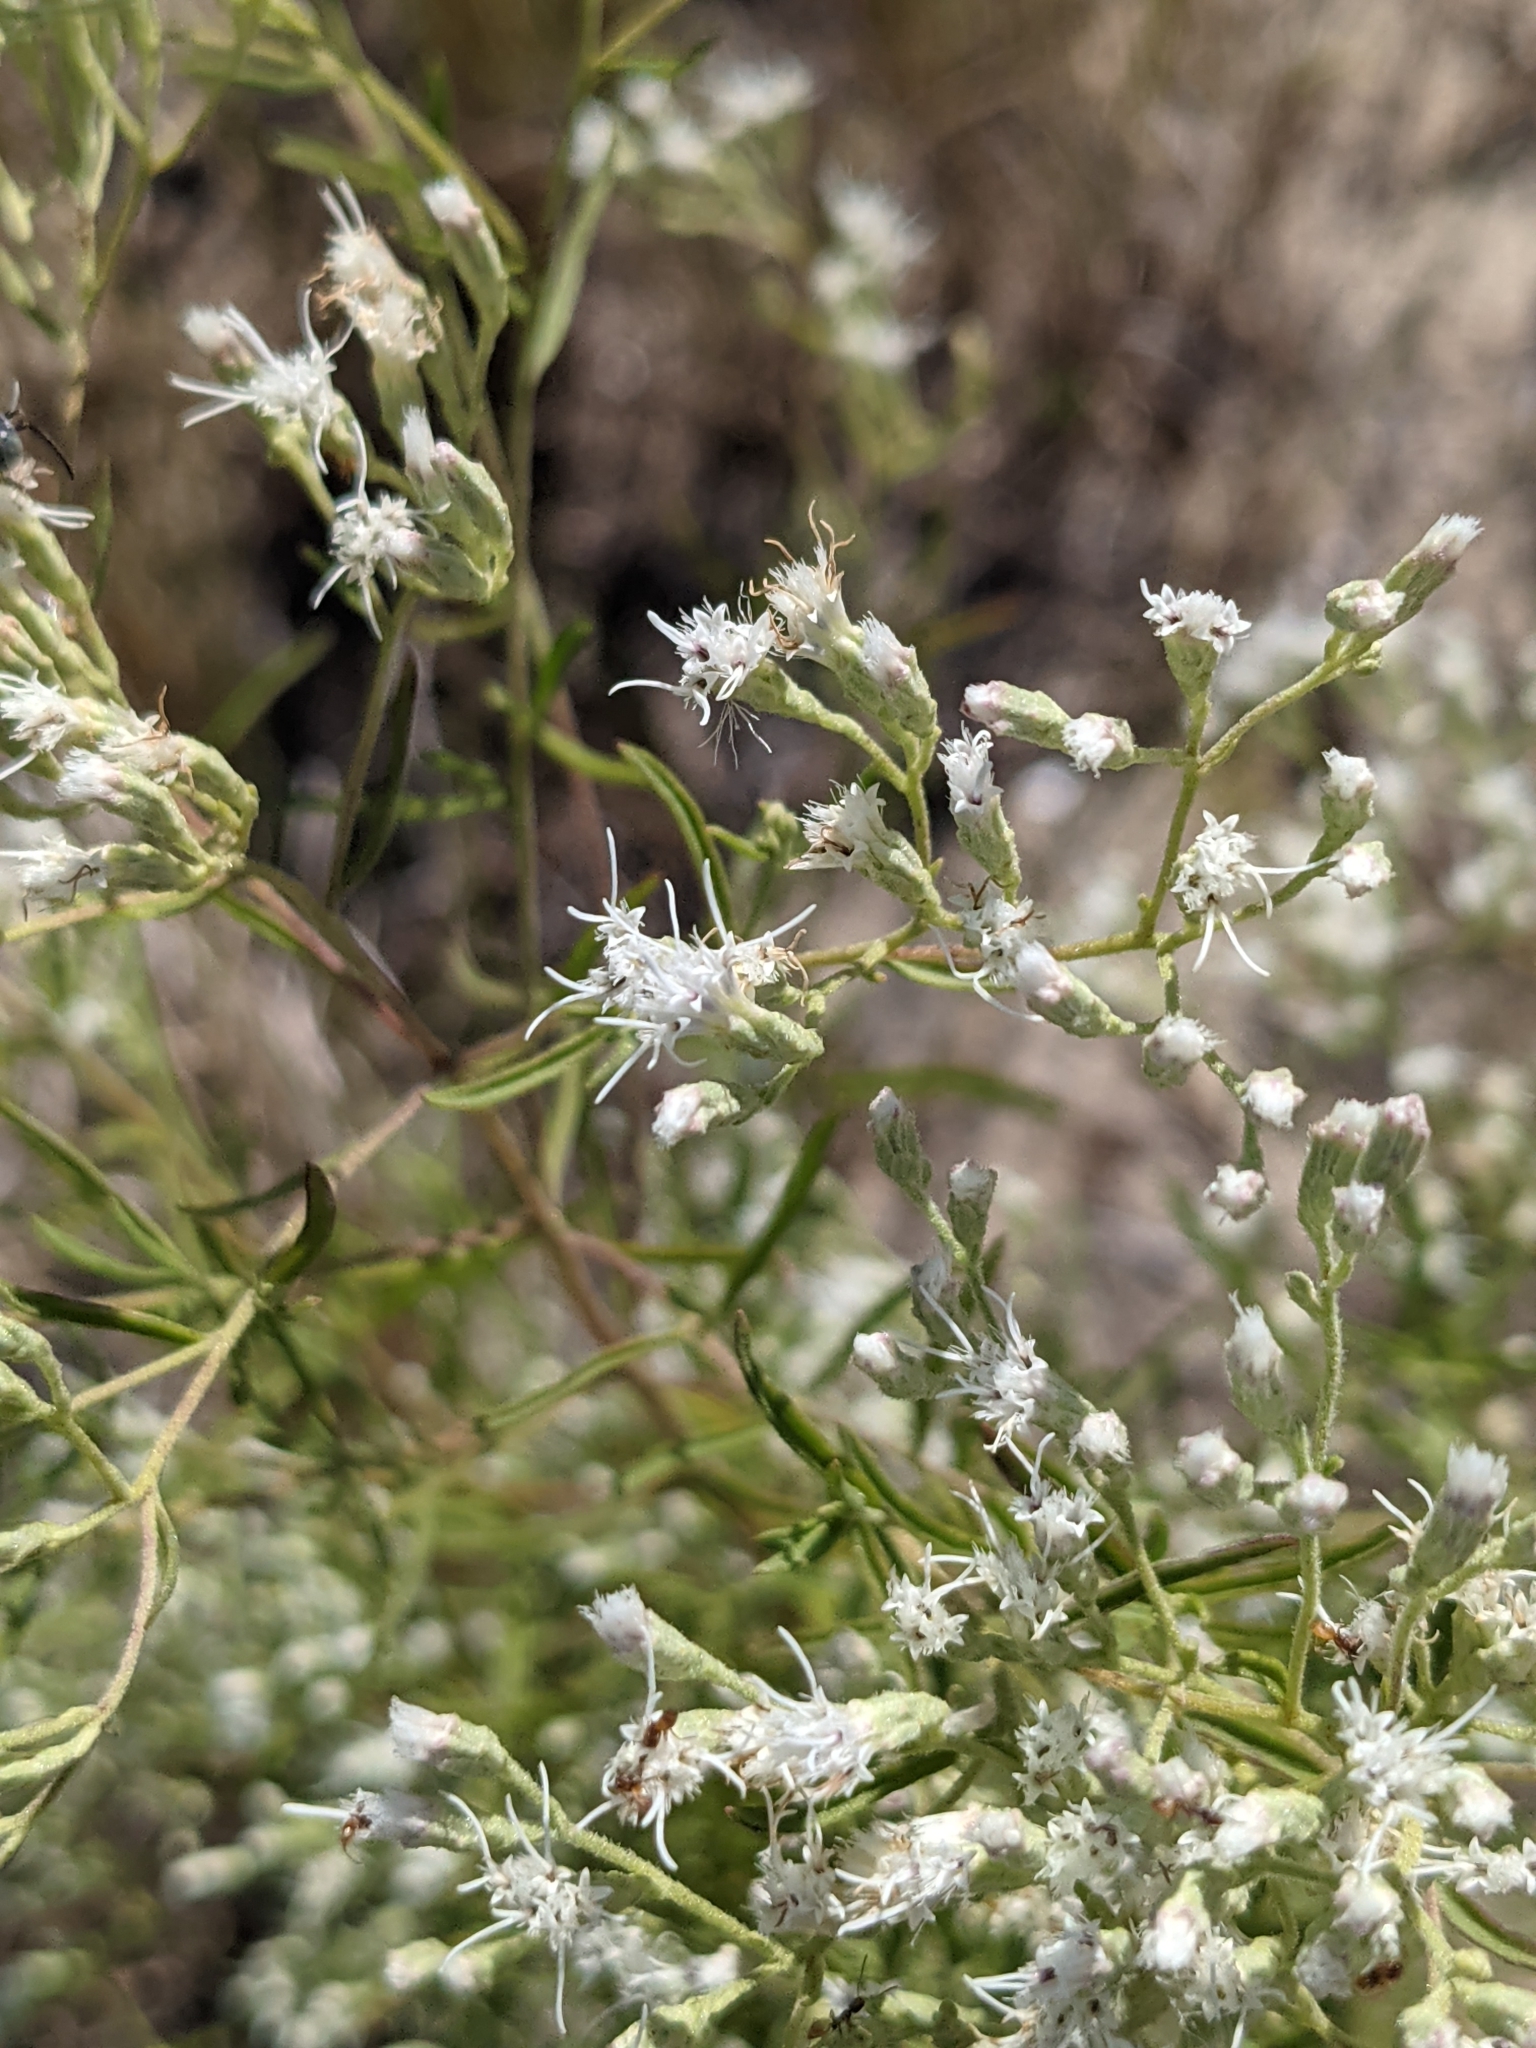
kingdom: Plantae
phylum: Tracheophyta
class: Magnoliopsida
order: Asterales
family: Asteraceae
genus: Eupatorium
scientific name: Eupatorium hyssopifolium
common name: Hyssop-leaf thoroughwort
